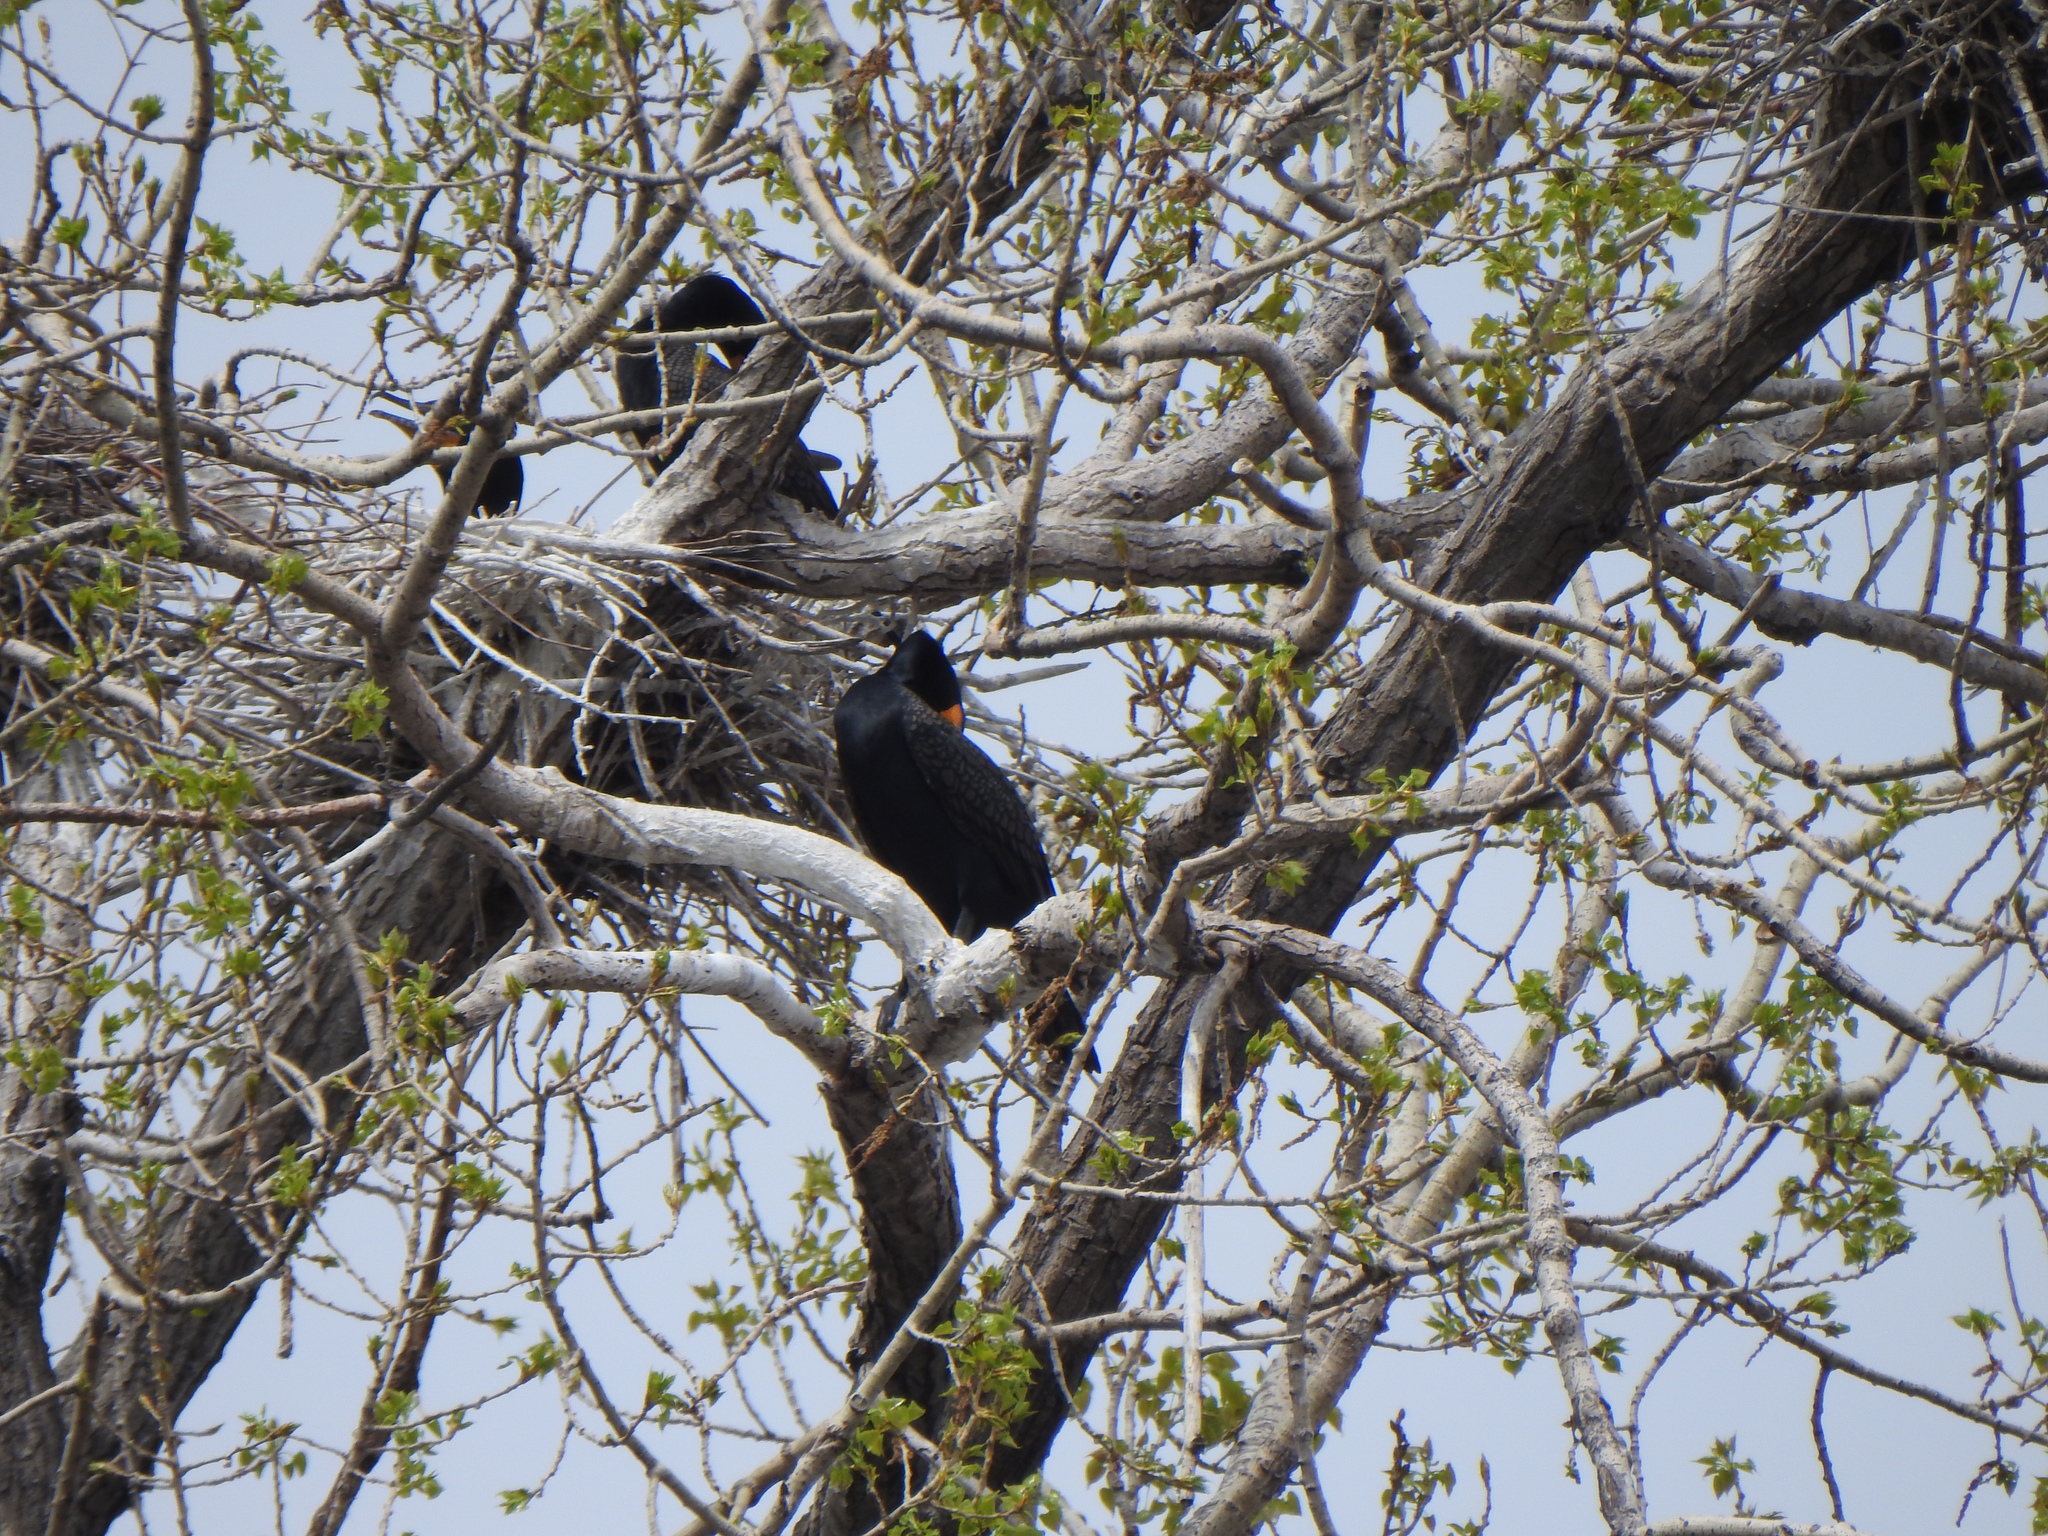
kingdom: Animalia
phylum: Chordata
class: Aves
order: Suliformes
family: Phalacrocoracidae
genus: Phalacrocorax
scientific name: Phalacrocorax auritus
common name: Double-crested cormorant
